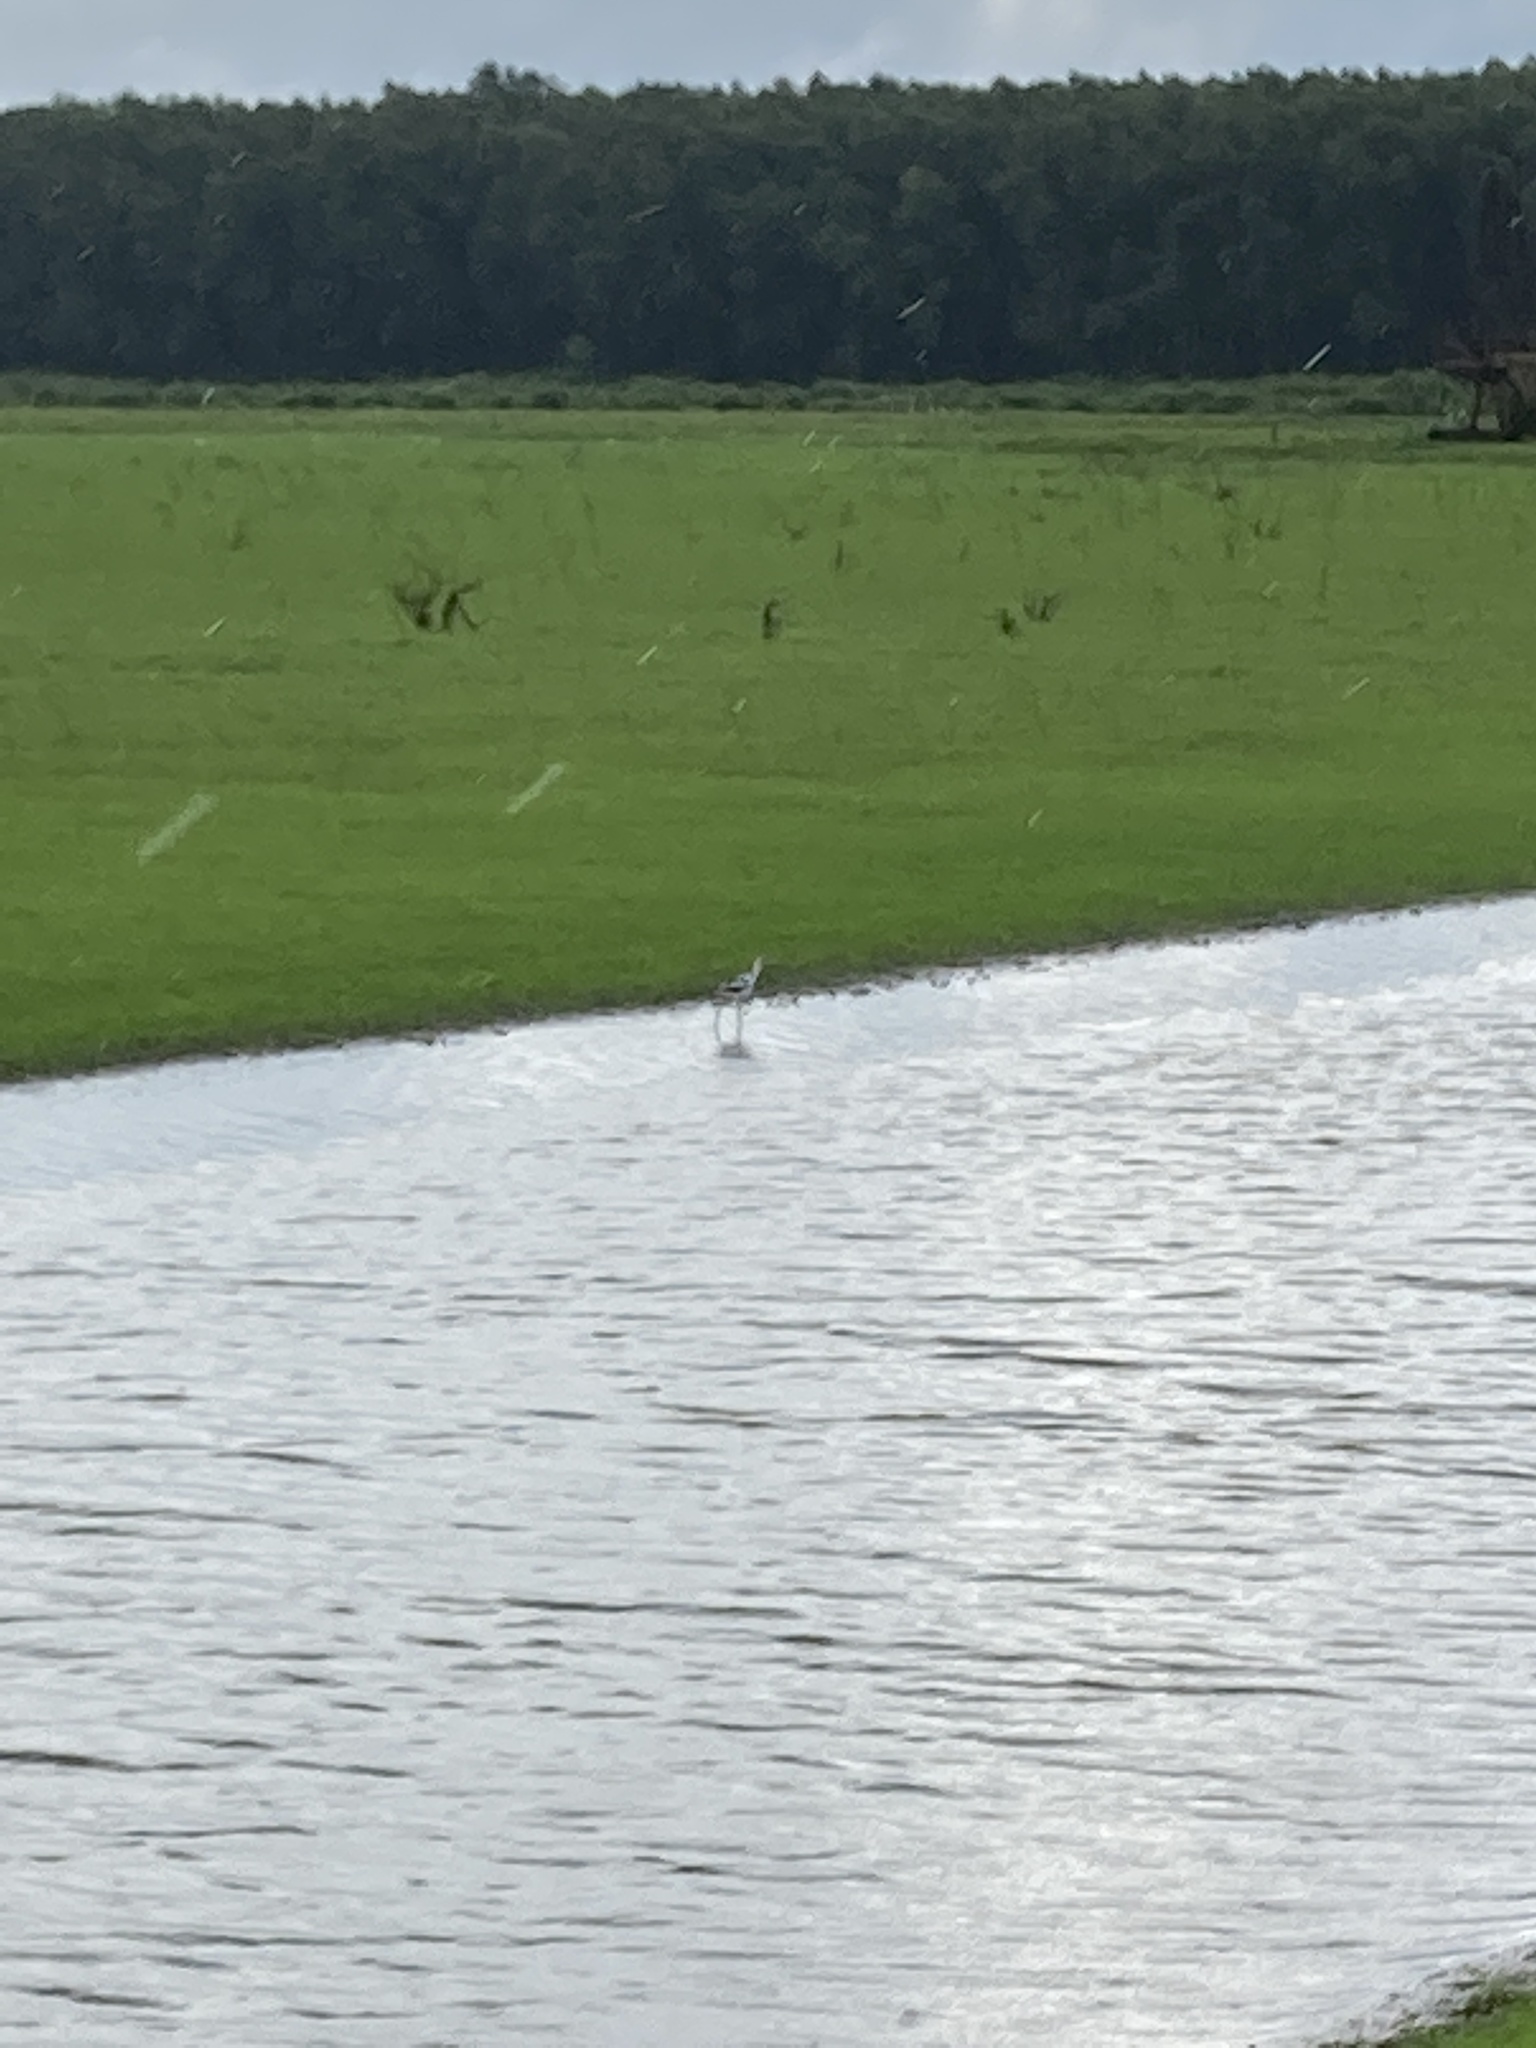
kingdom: Animalia
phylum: Chordata
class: Aves
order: Charadriiformes
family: Recurvirostridae
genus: Recurvirostra
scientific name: Recurvirostra americana
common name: American avocet
